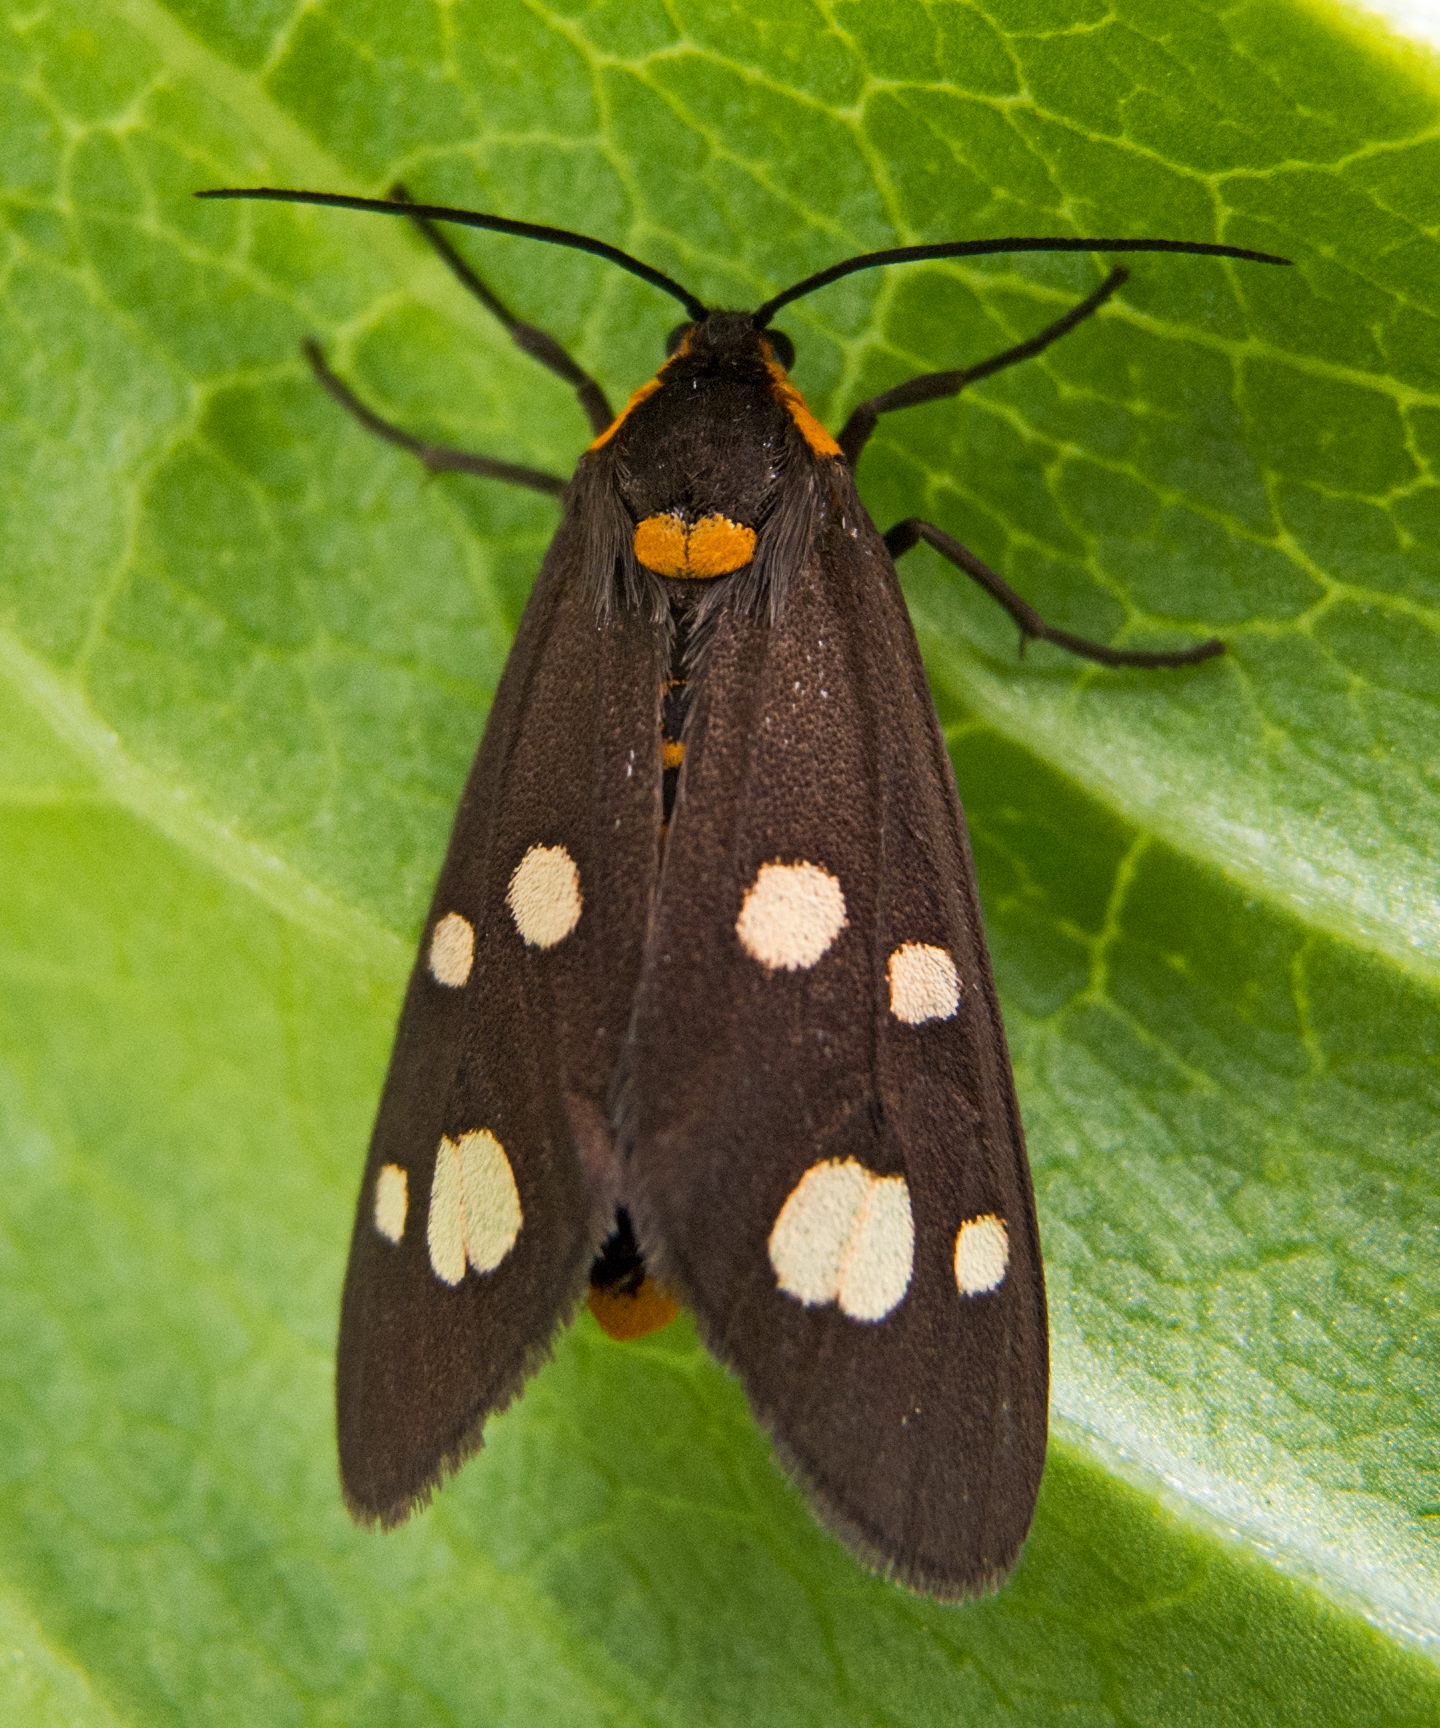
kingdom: Animalia
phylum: Arthropoda
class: Insecta
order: Lepidoptera
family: Erebidae
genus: Dysauxes
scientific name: Dysauxes punctata
